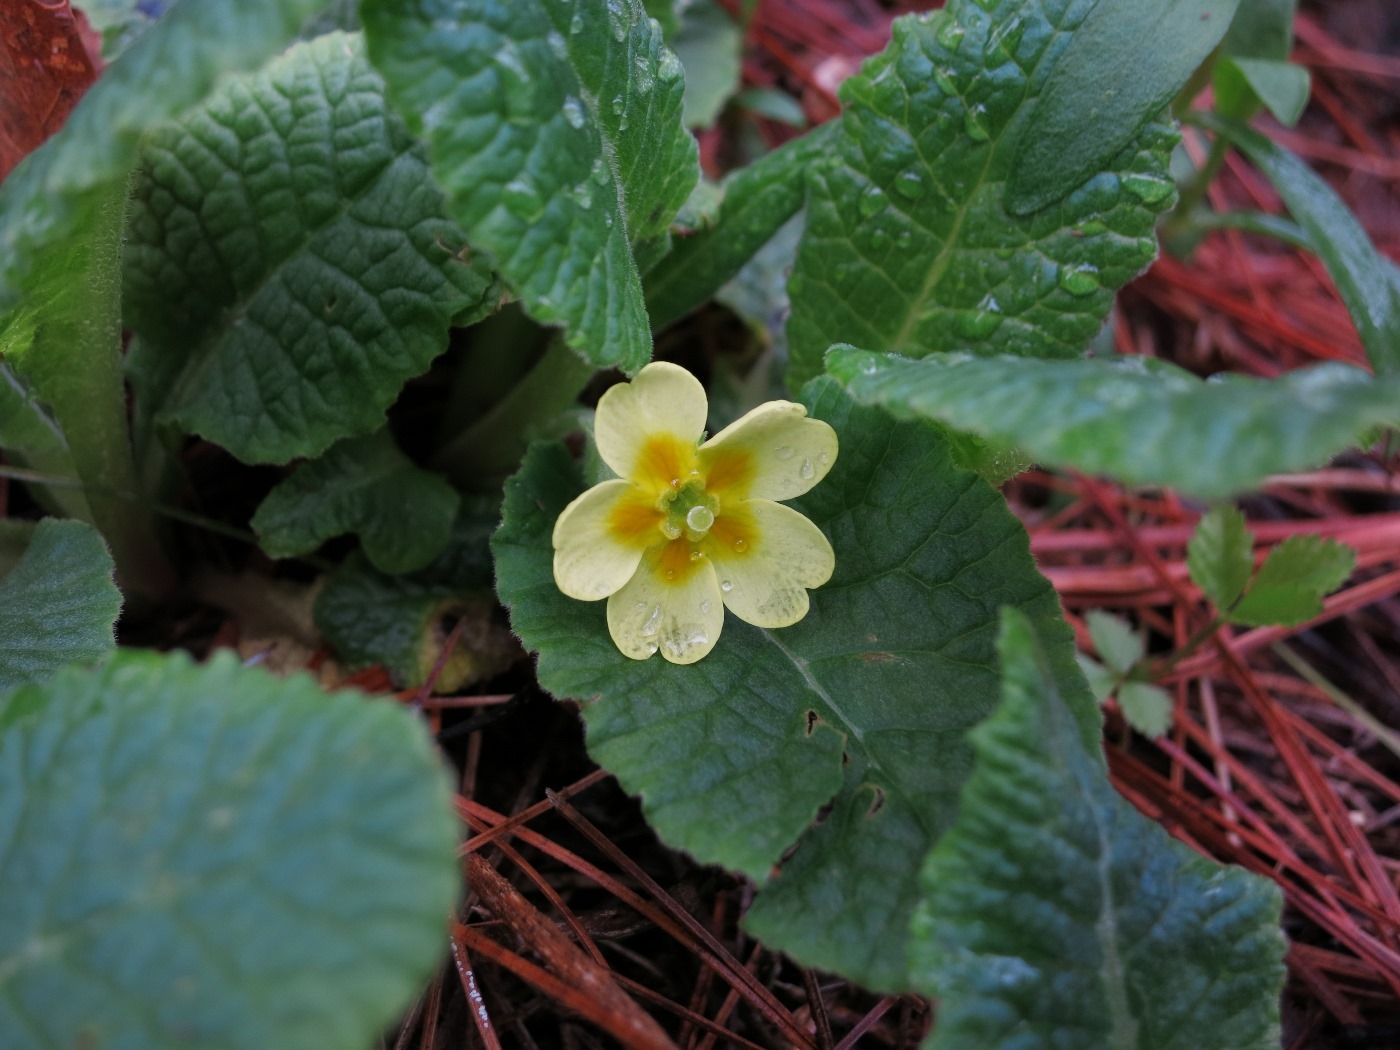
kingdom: Plantae
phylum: Tracheophyta
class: Magnoliopsida
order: Ericales
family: Primulaceae
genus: Primula
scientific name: Primula vulgaris
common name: Primrose
